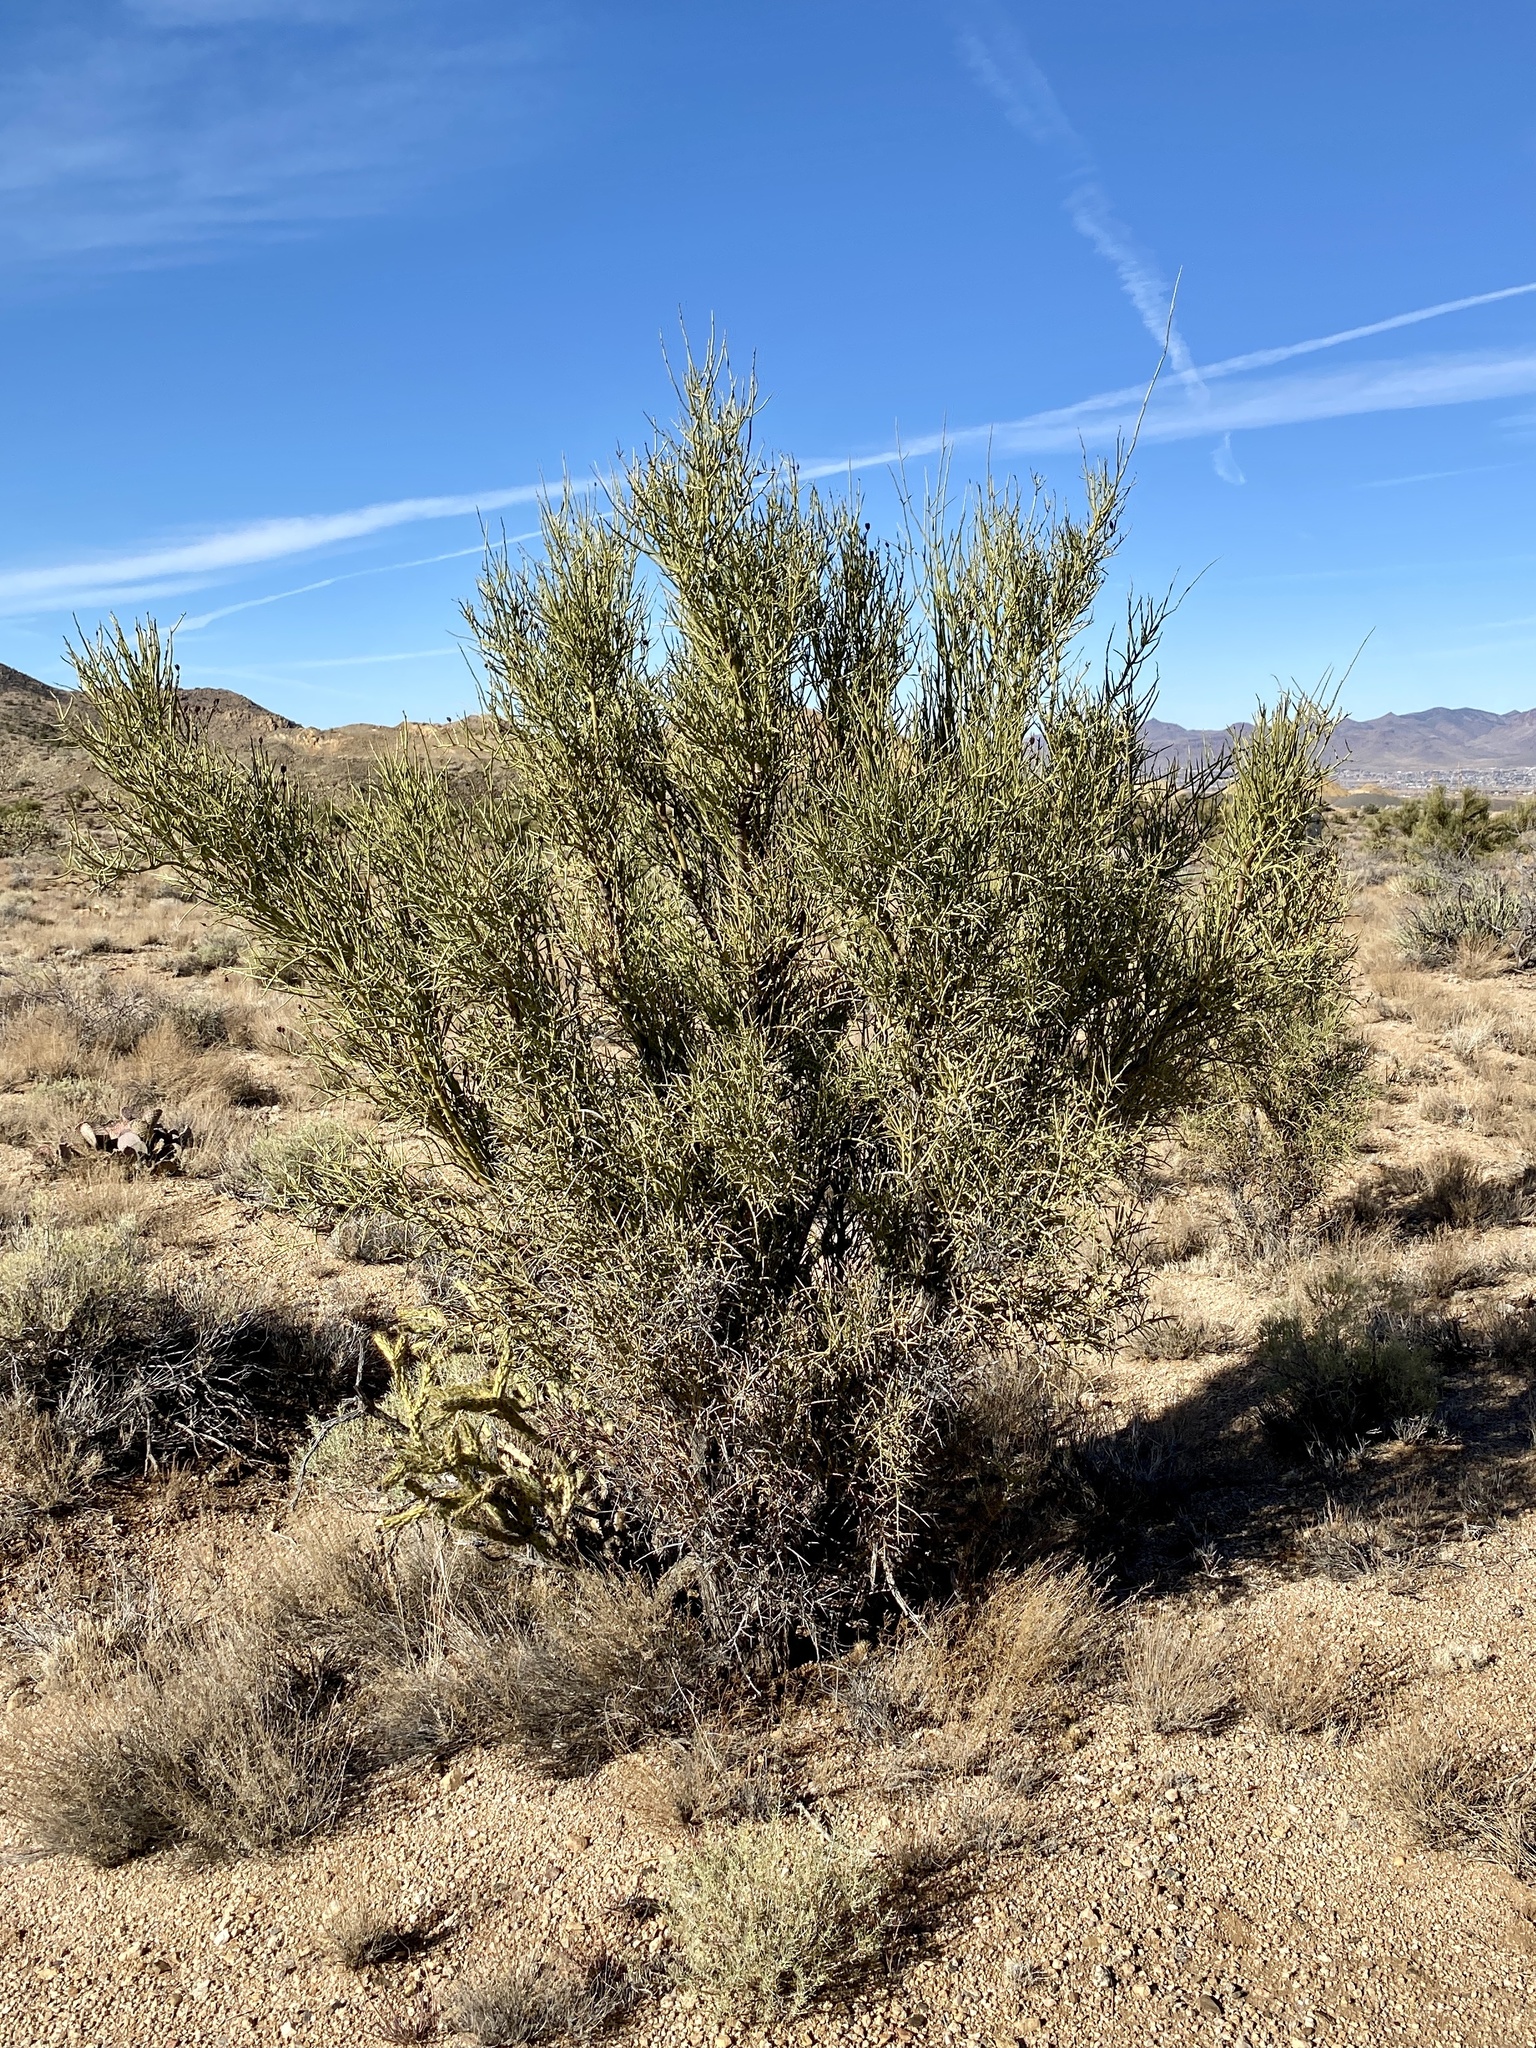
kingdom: Plantae
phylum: Tracheophyta
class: Magnoliopsida
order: Celastrales
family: Celastraceae
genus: Canotia
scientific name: Canotia holacantha
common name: Crucifixion thorns
